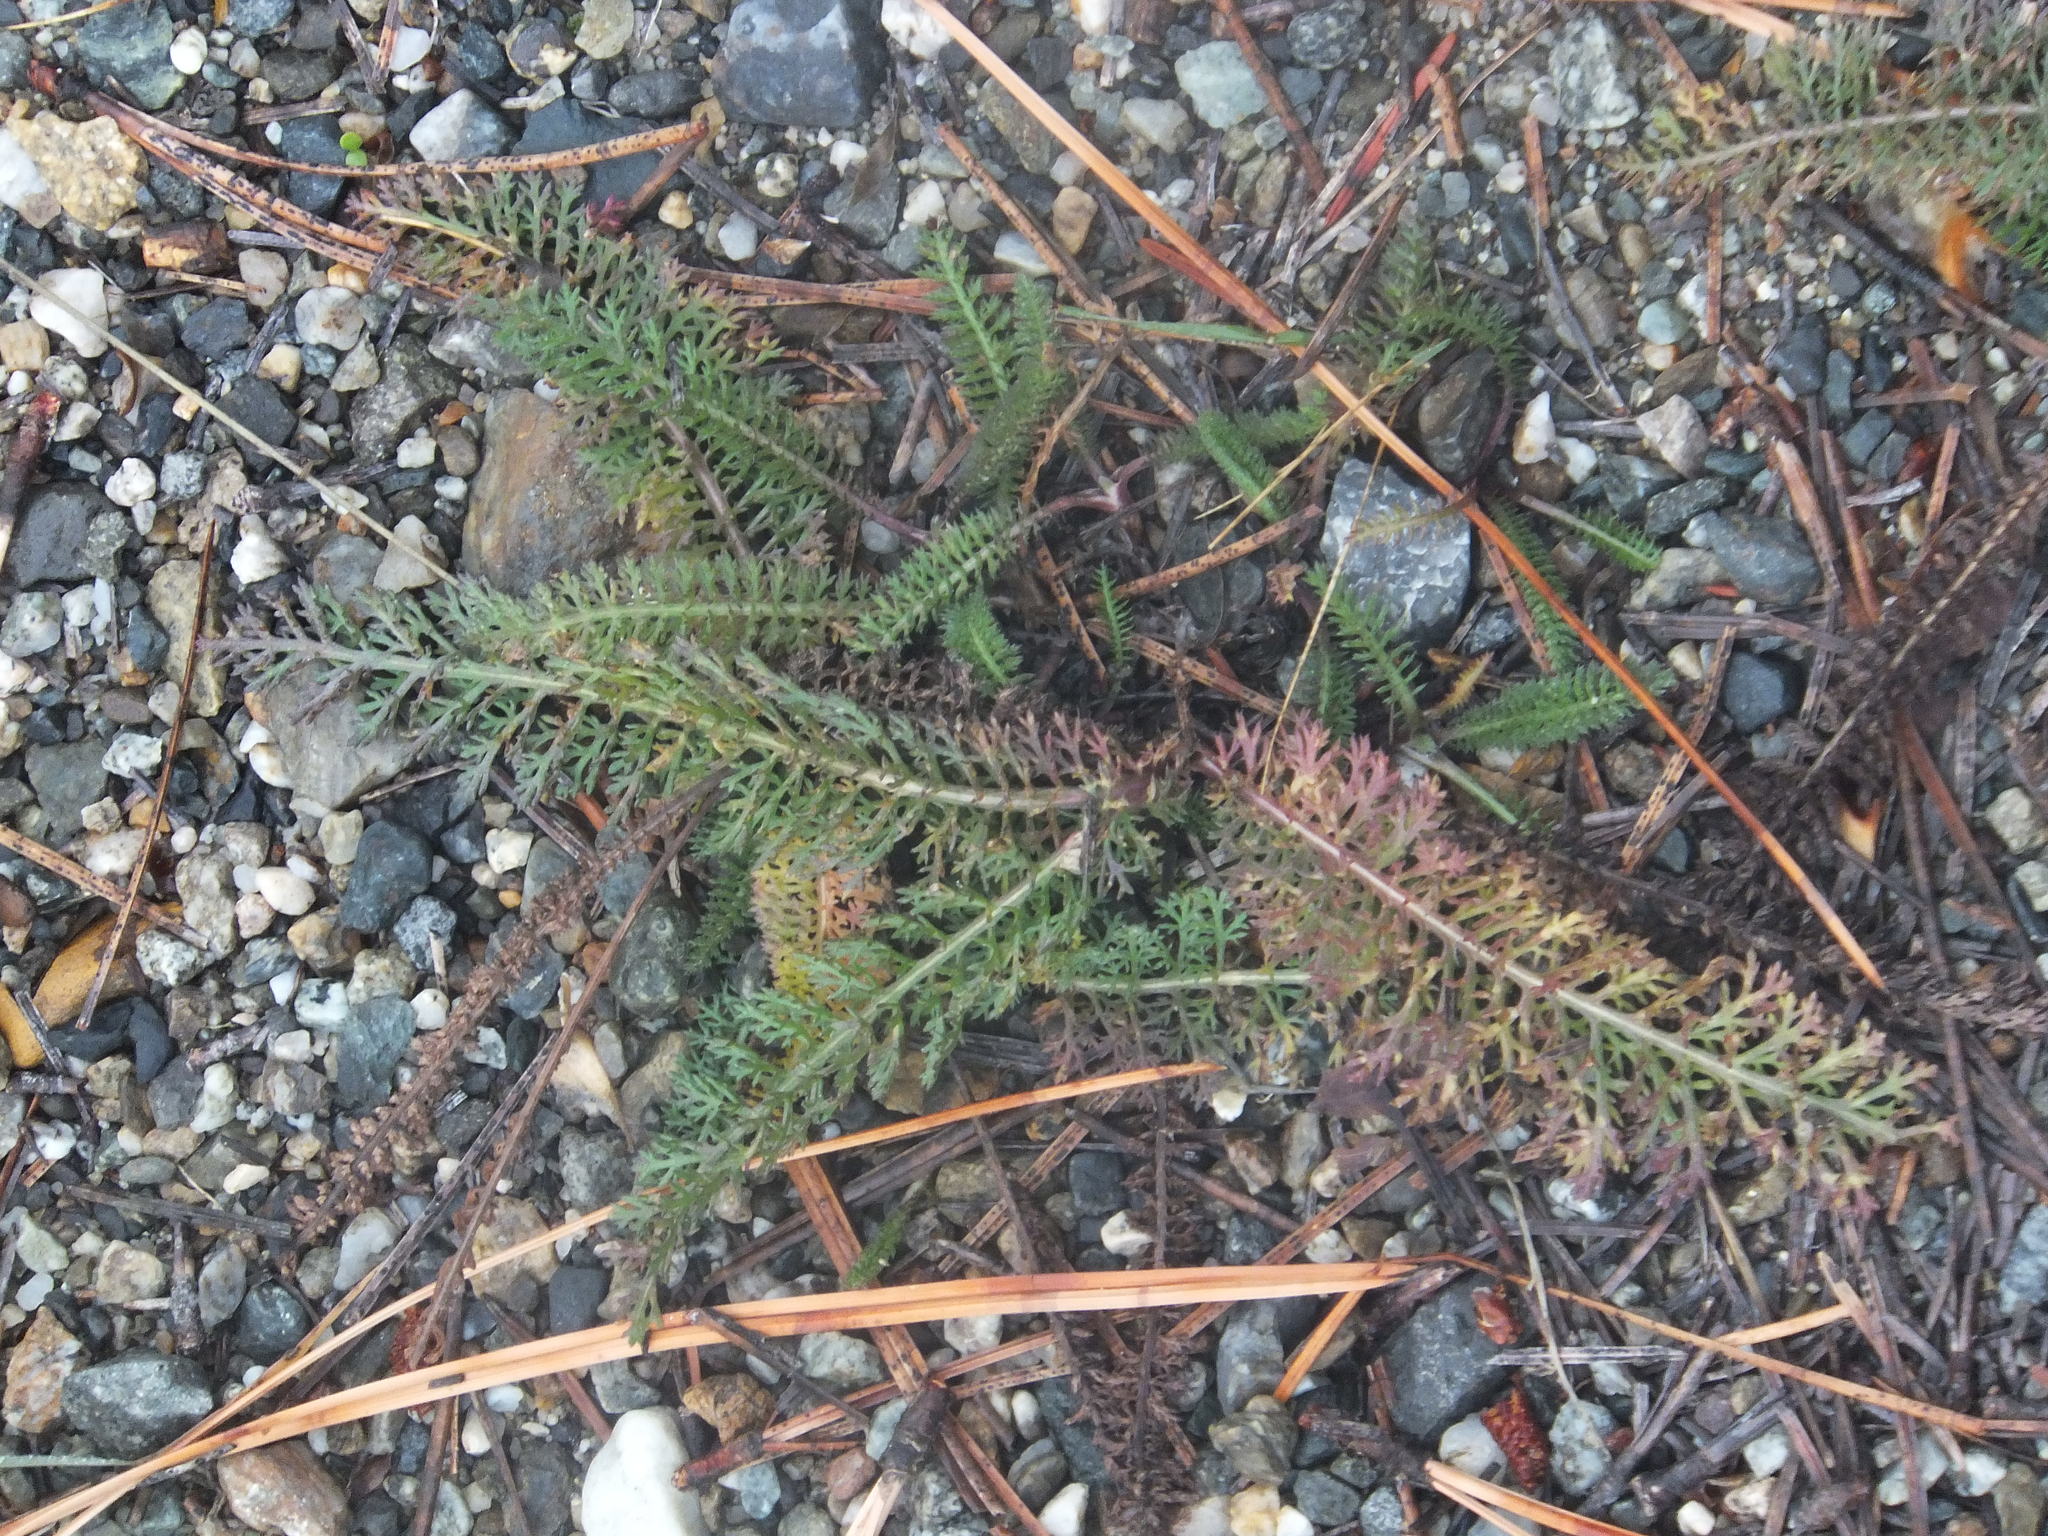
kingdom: Plantae
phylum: Tracheophyta
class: Magnoliopsida
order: Asterales
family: Asteraceae
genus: Achillea
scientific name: Achillea millefolium
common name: Yarrow
